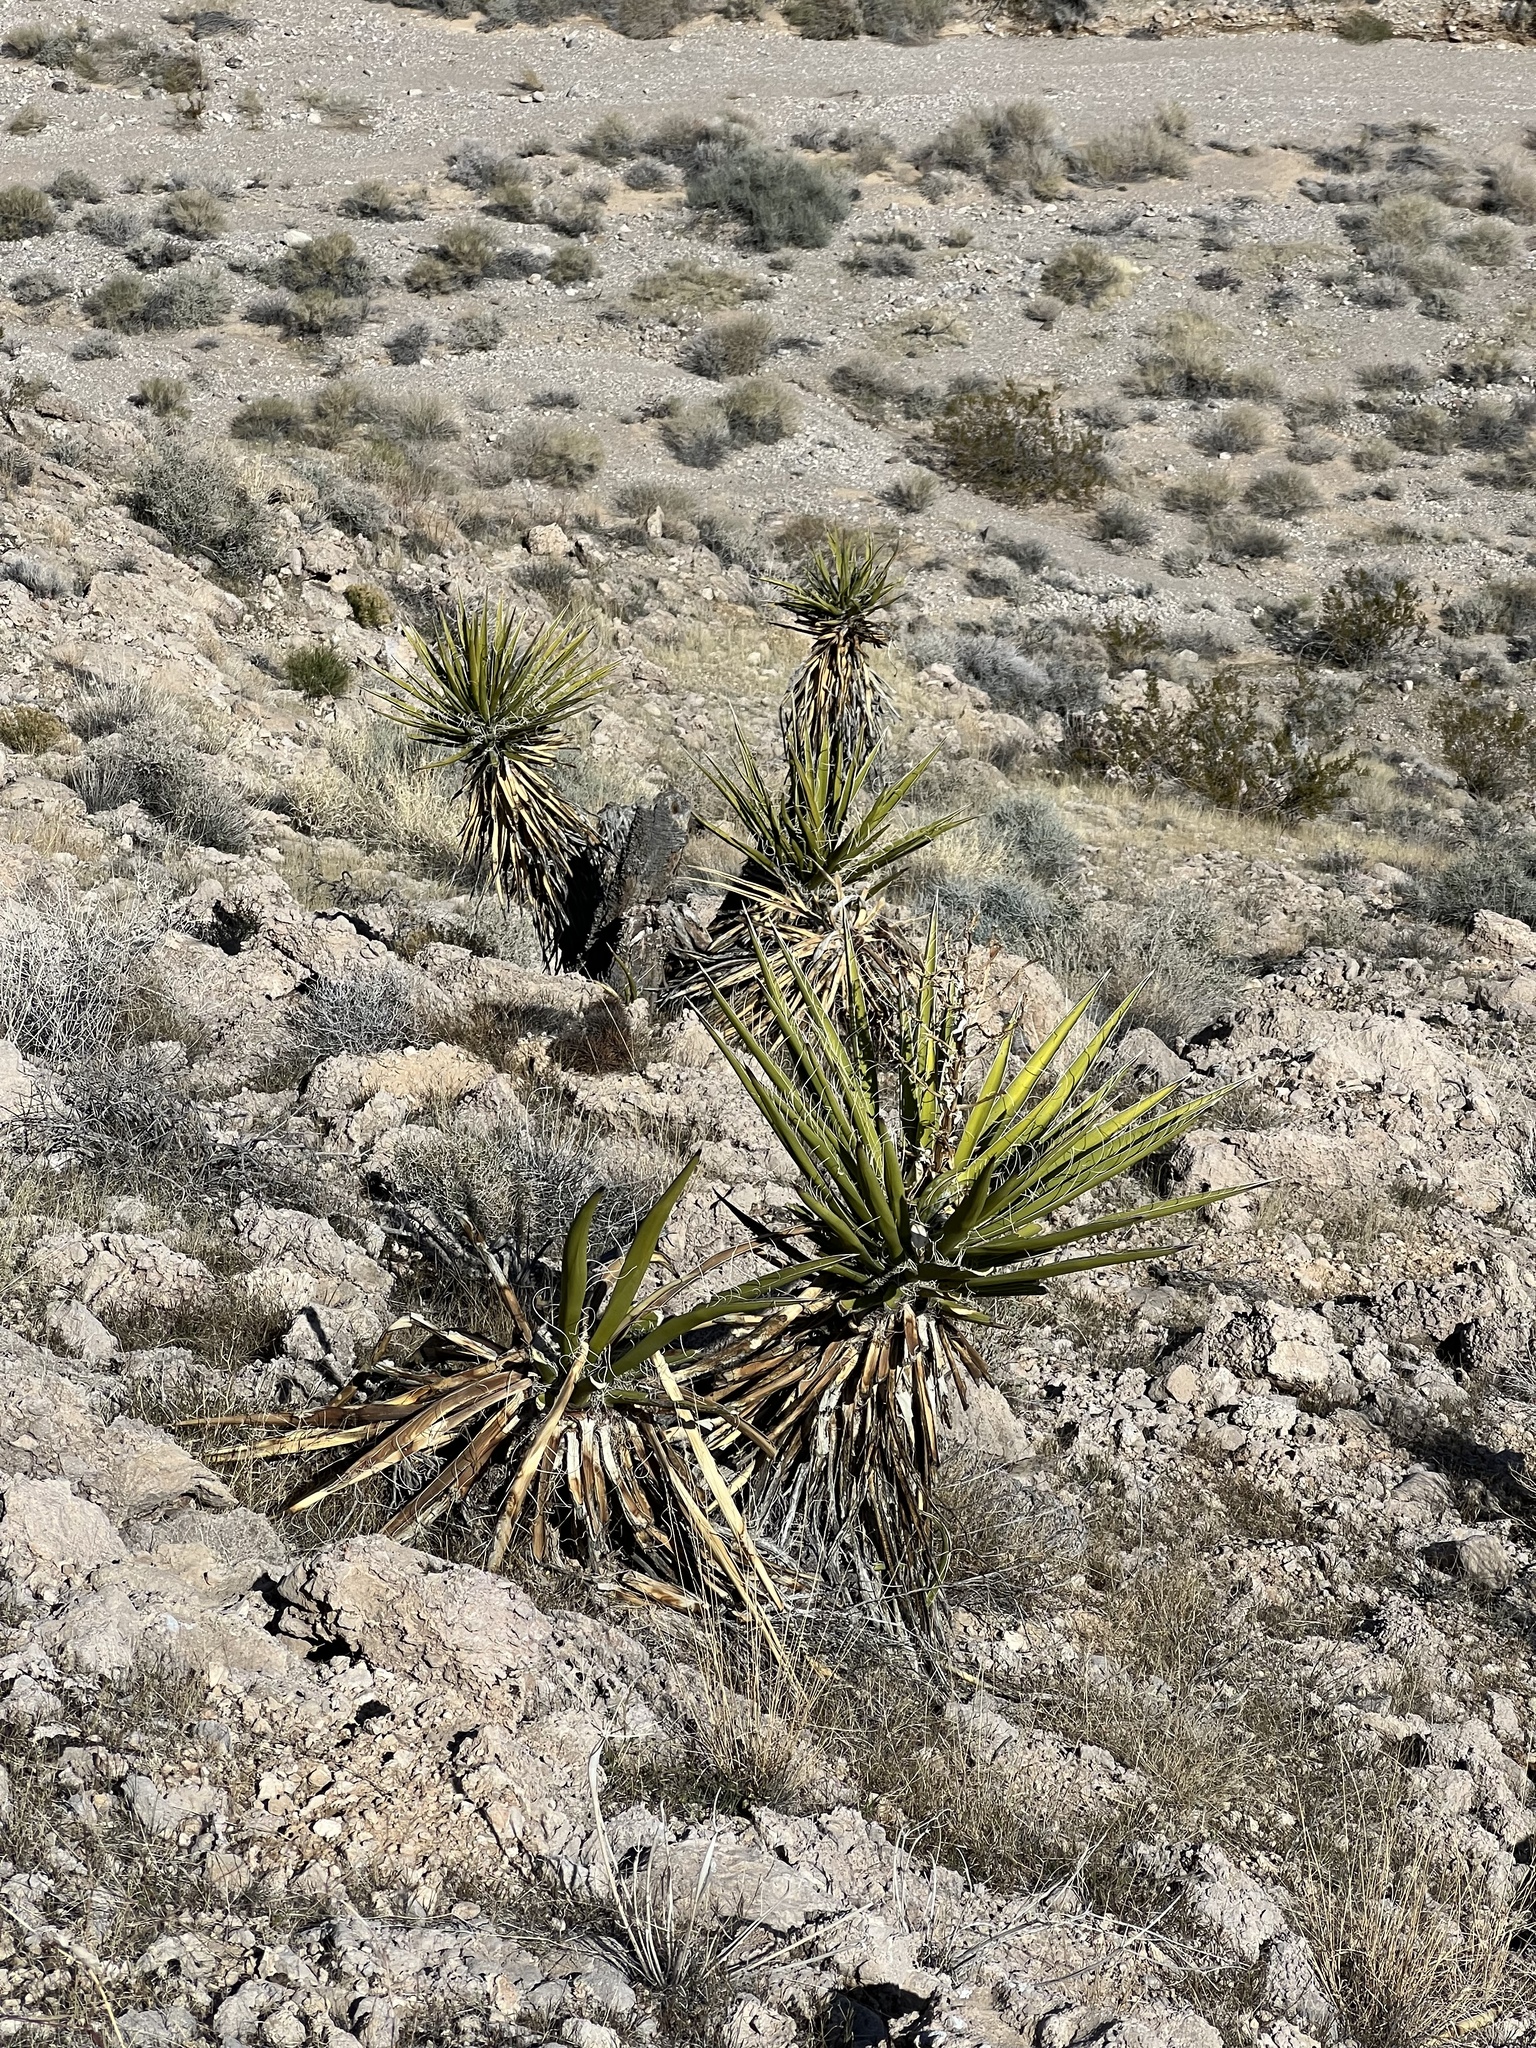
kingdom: Plantae
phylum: Tracheophyta
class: Liliopsida
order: Asparagales
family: Asparagaceae
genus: Yucca
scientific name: Yucca schidigera
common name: Mojave yucca
